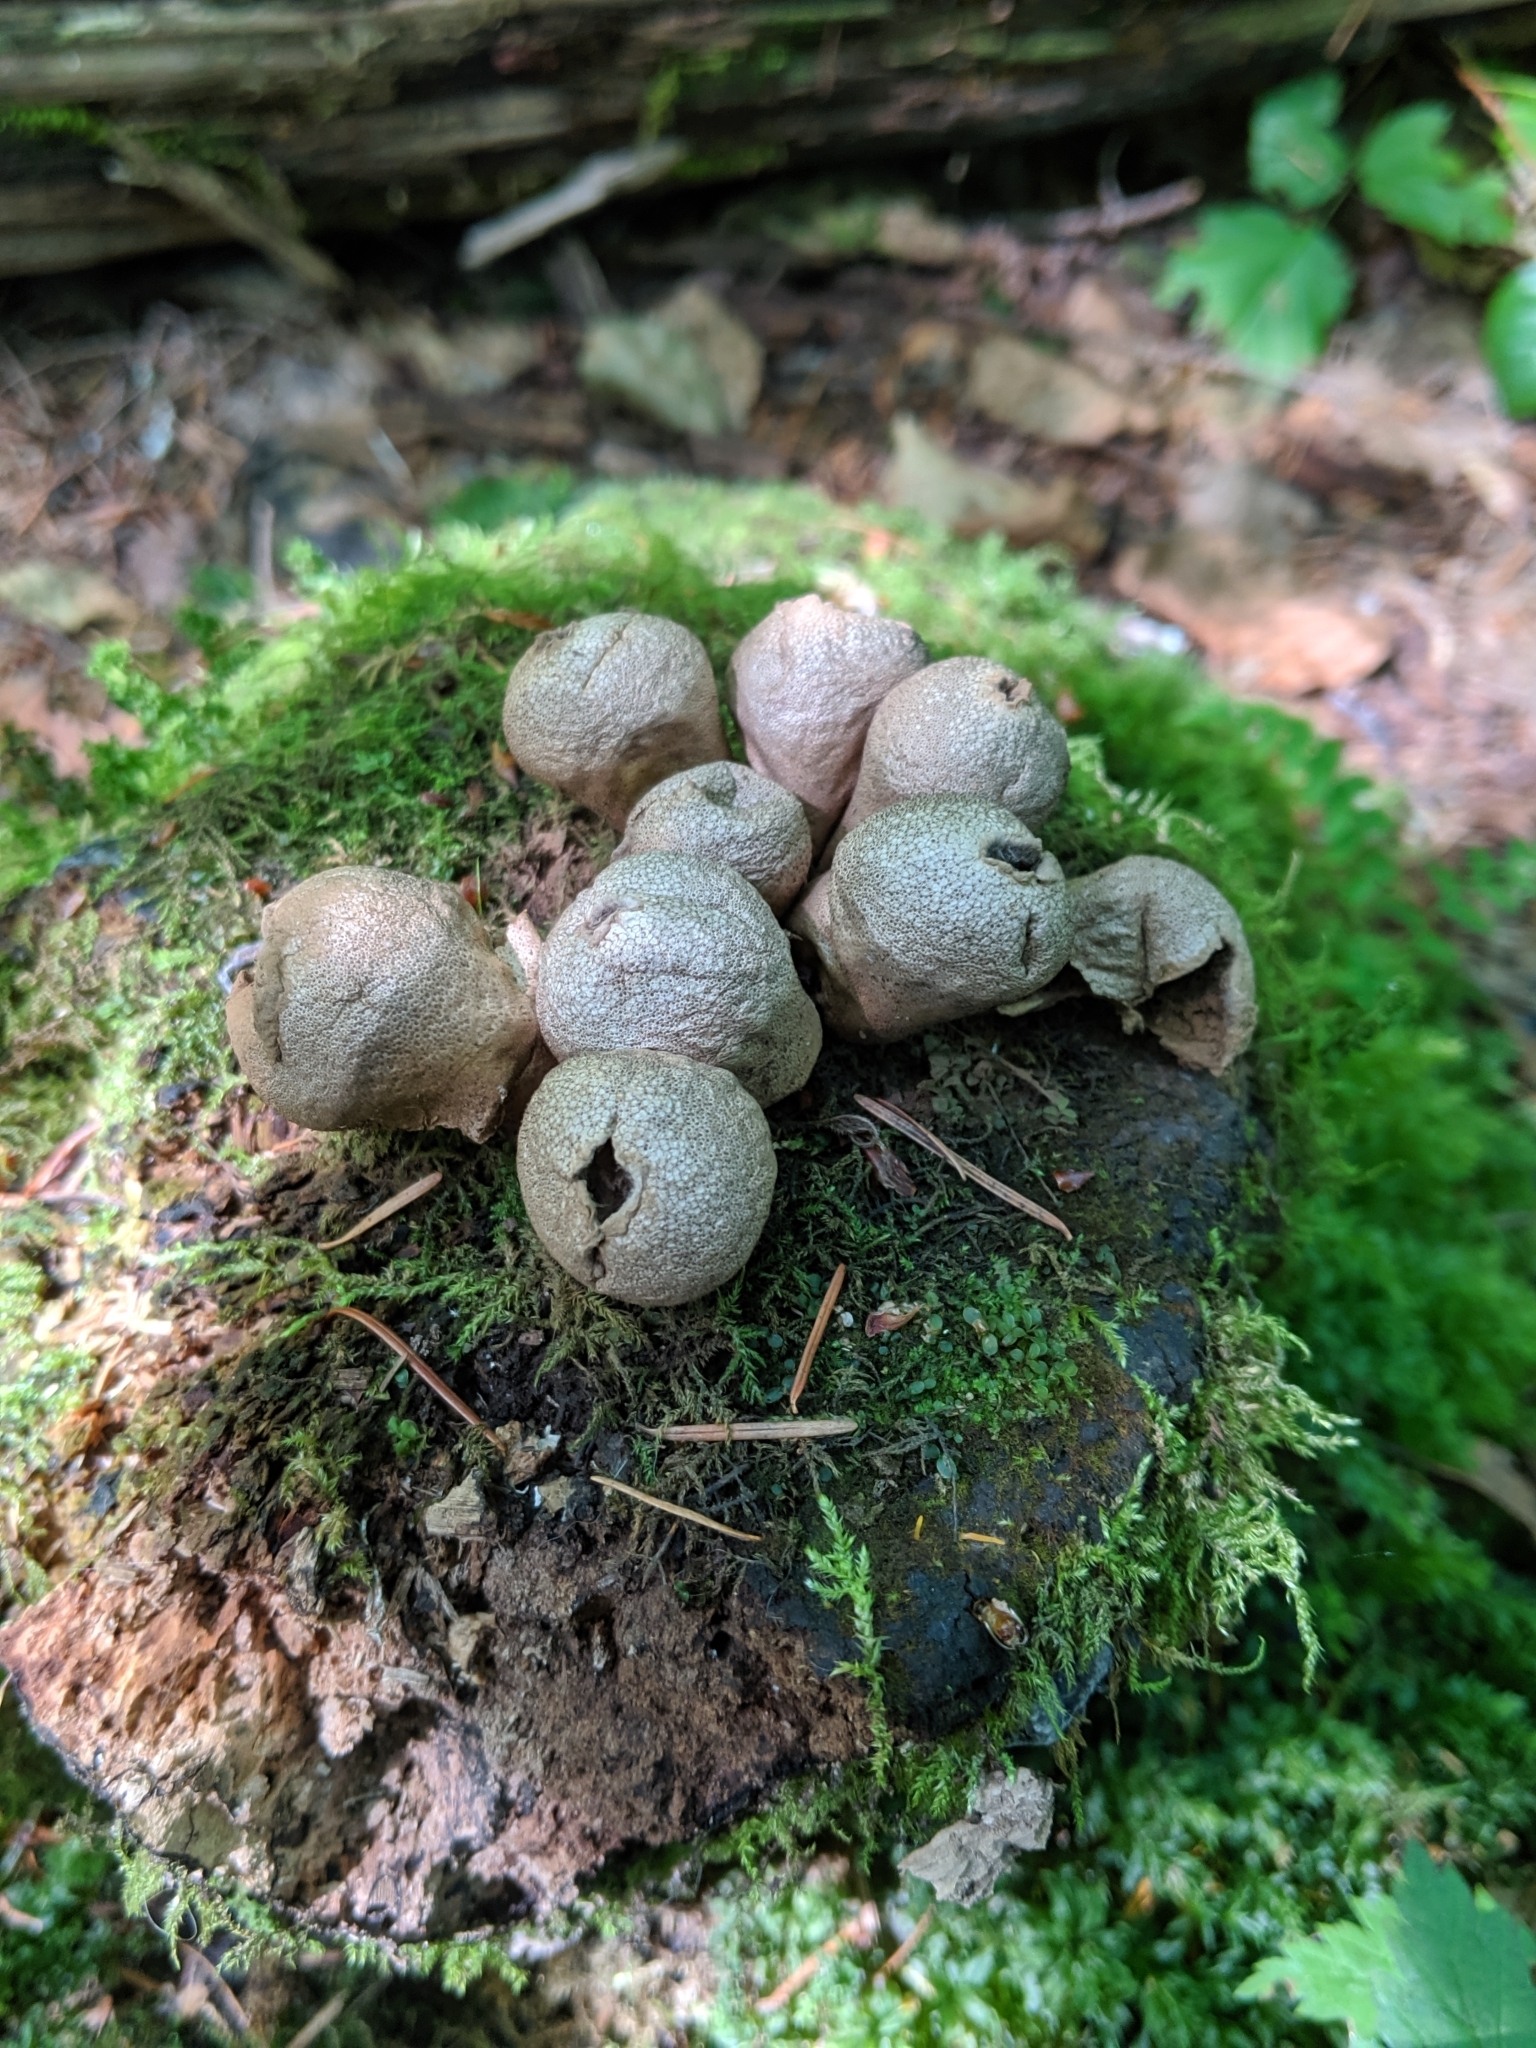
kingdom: Fungi
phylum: Basidiomycota
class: Agaricomycetes
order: Agaricales
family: Lycoperdaceae
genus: Apioperdon
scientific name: Apioperdon pyriforme
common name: Pear-shaped puffball
